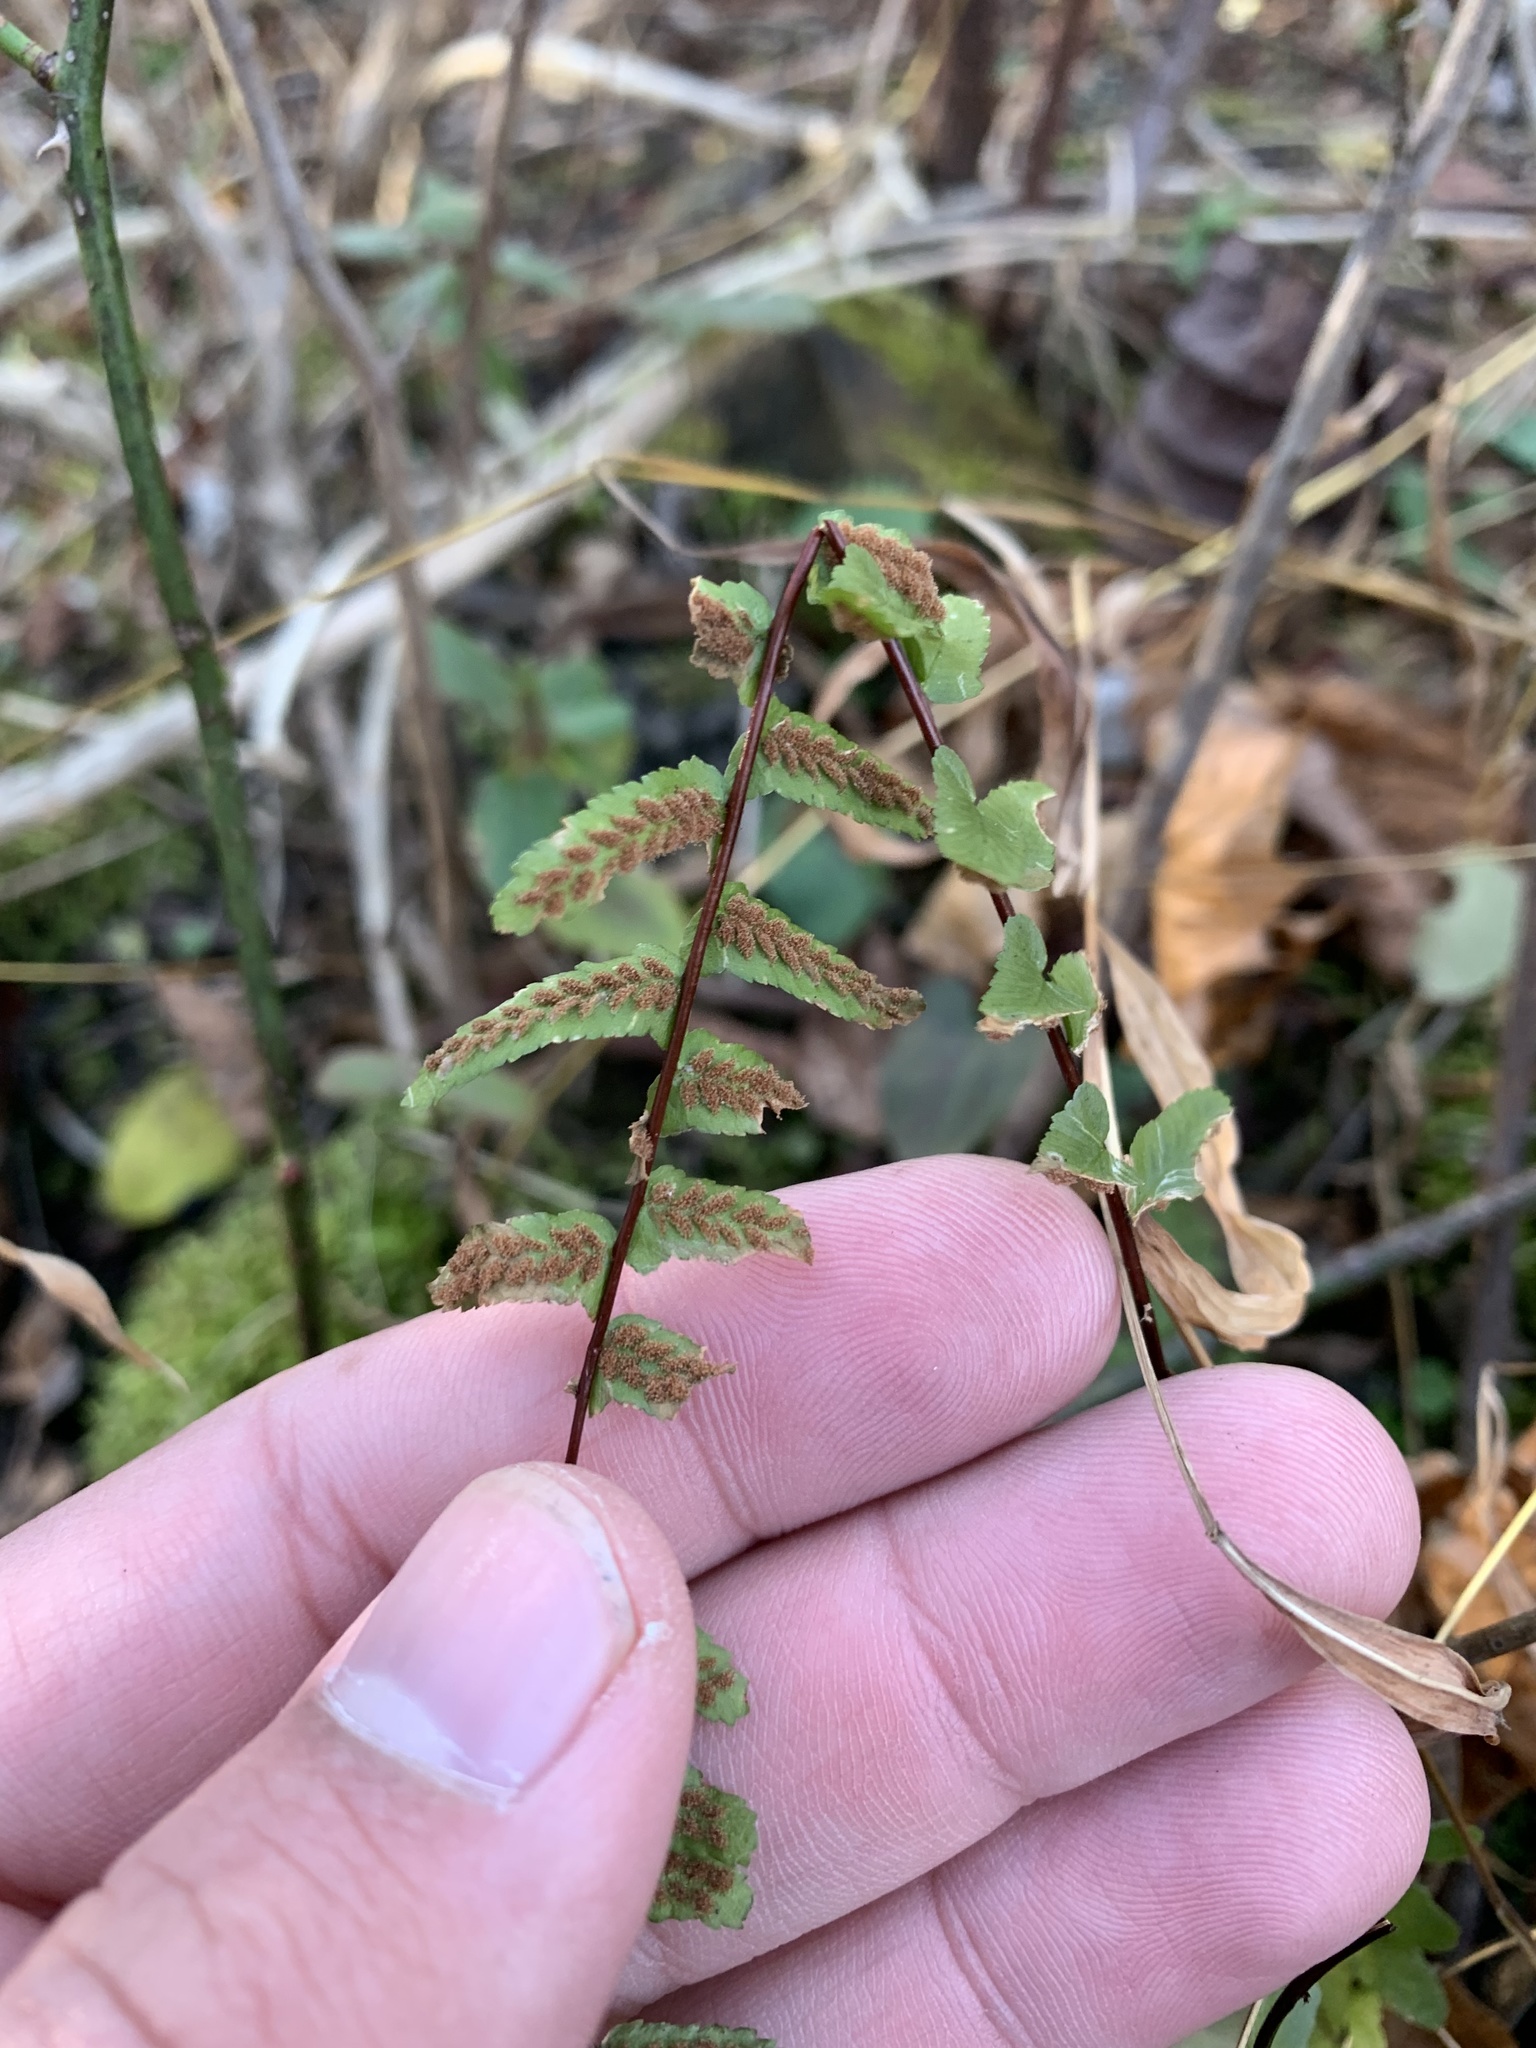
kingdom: Plantae
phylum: Tracheophyta
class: Polypodiopsida
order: Polypodiales
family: Aspleniaceae
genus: Asplenium
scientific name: Asplenium platyneuron
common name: Ebony spleenwort
